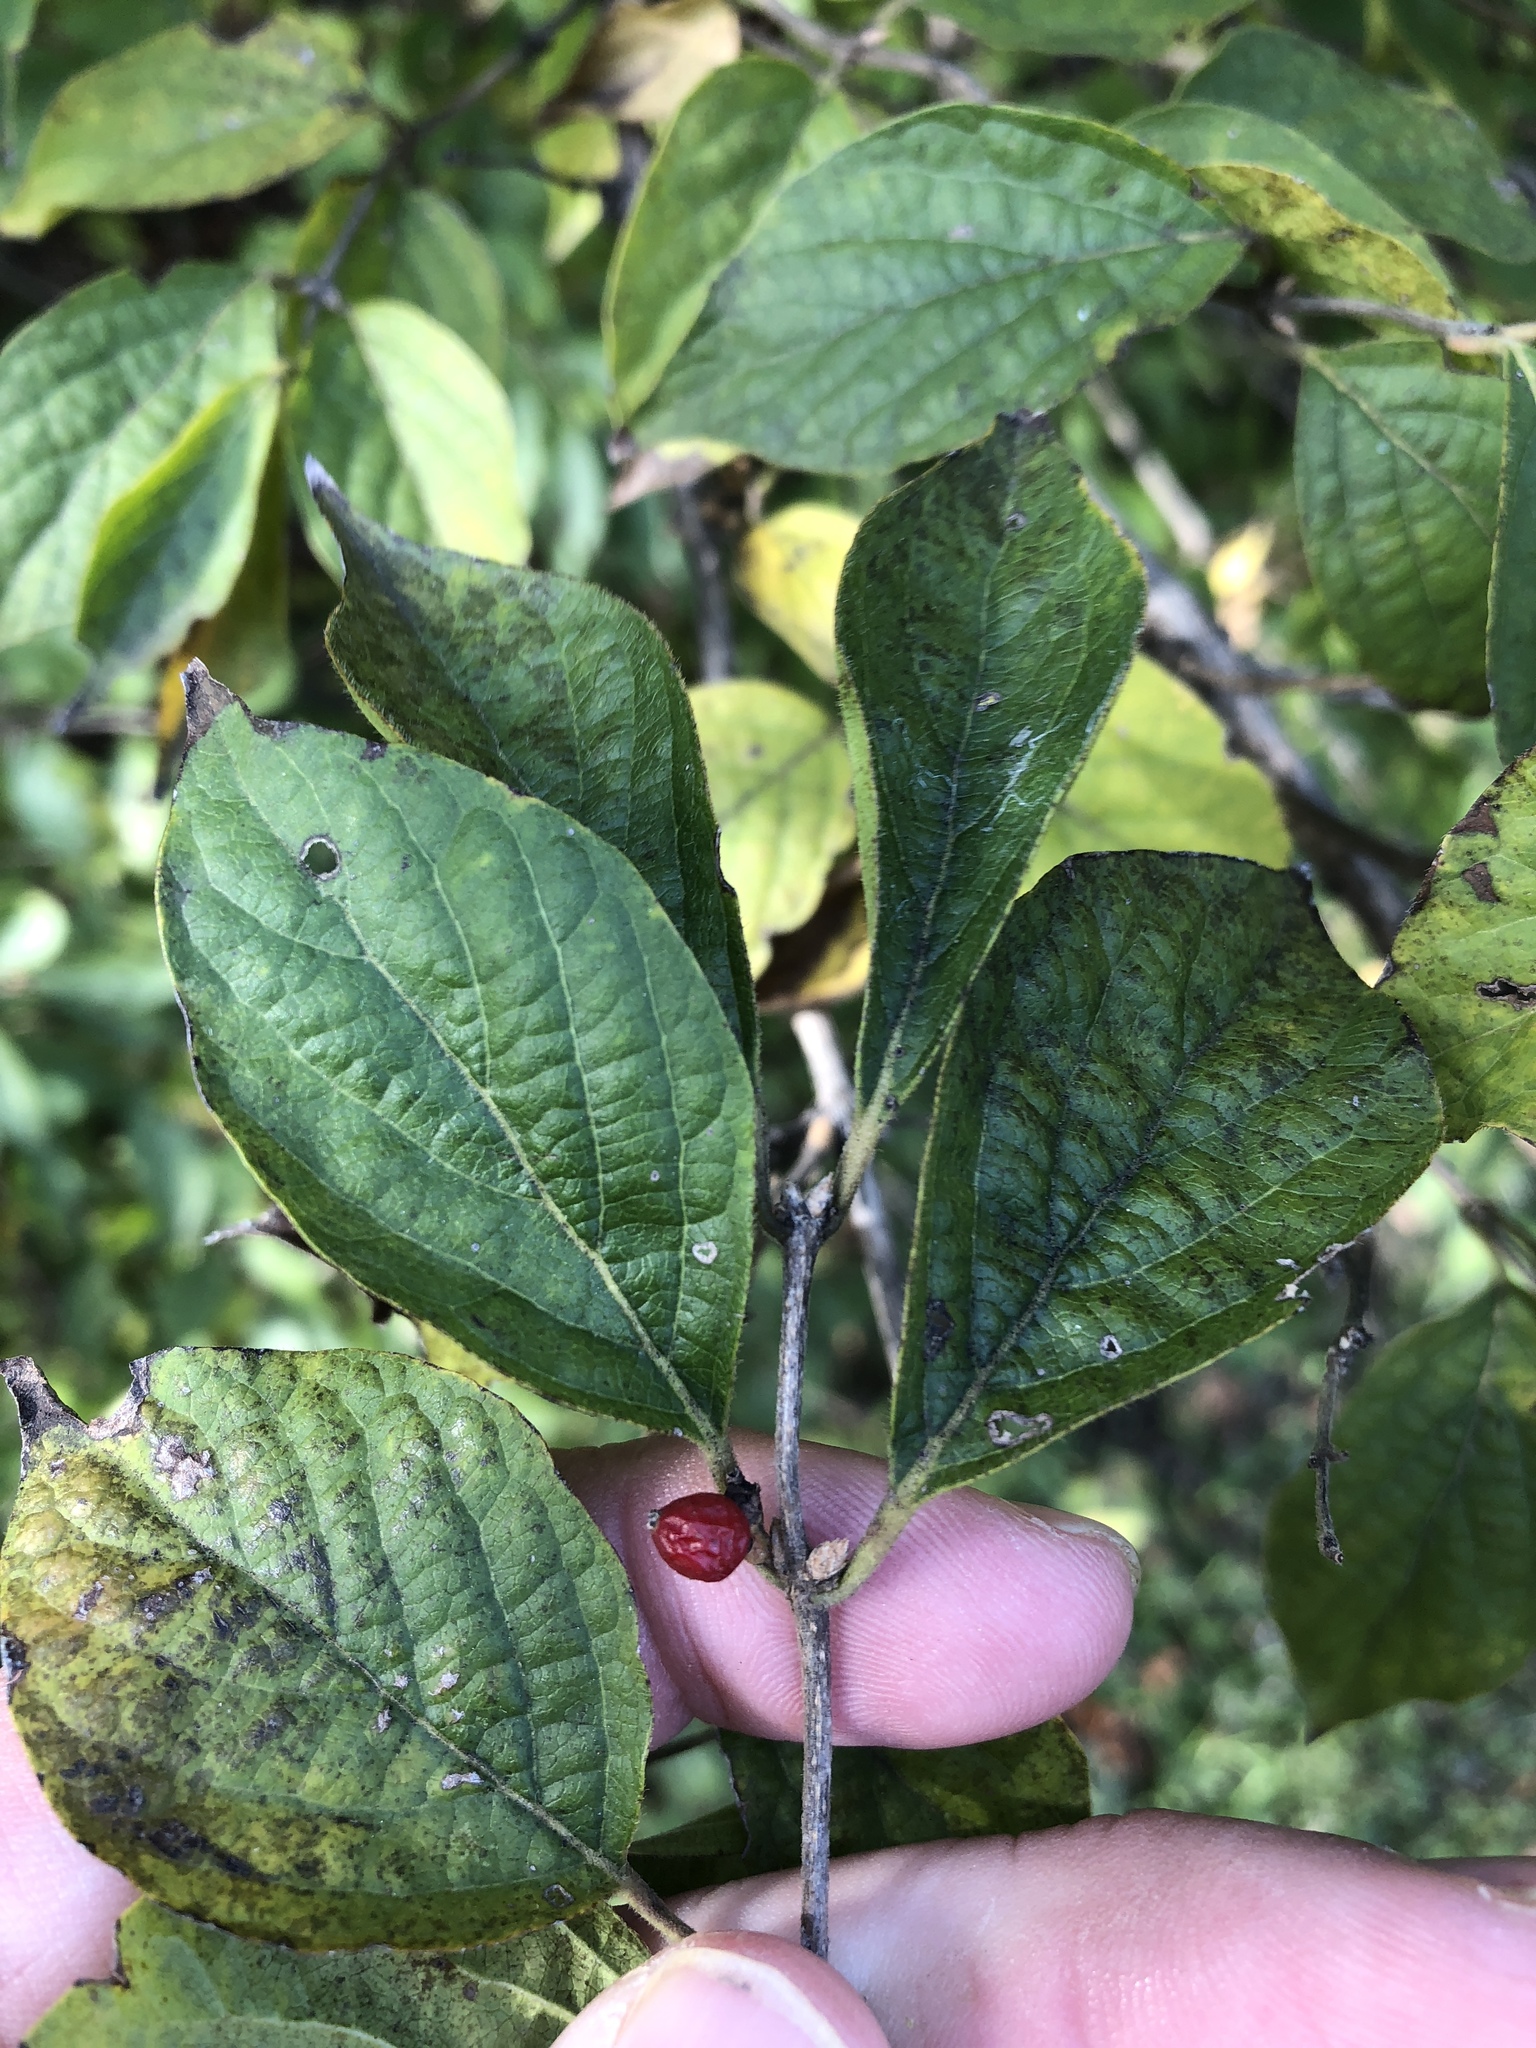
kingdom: Plantae
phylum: Tracheophyta
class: Magnoliopsida
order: Dipsacales
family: Caprifoliaceae
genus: Lonicera
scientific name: Lonicera maackii
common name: Amur honeysuckle
